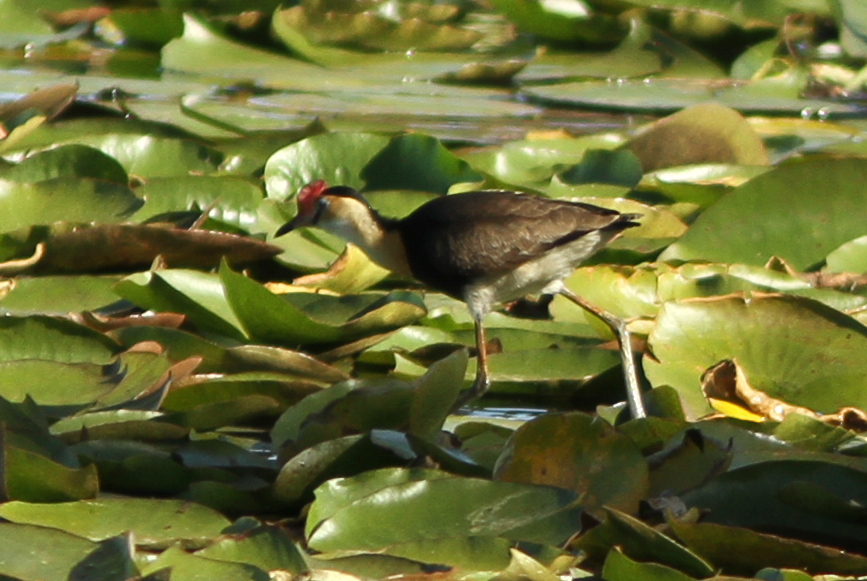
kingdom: Animalia
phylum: Chordata
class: Aves
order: Charadriiformes
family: Jacanidae
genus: Irediparra
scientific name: Irediparra gallinacea
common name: Comb-crested jacana
